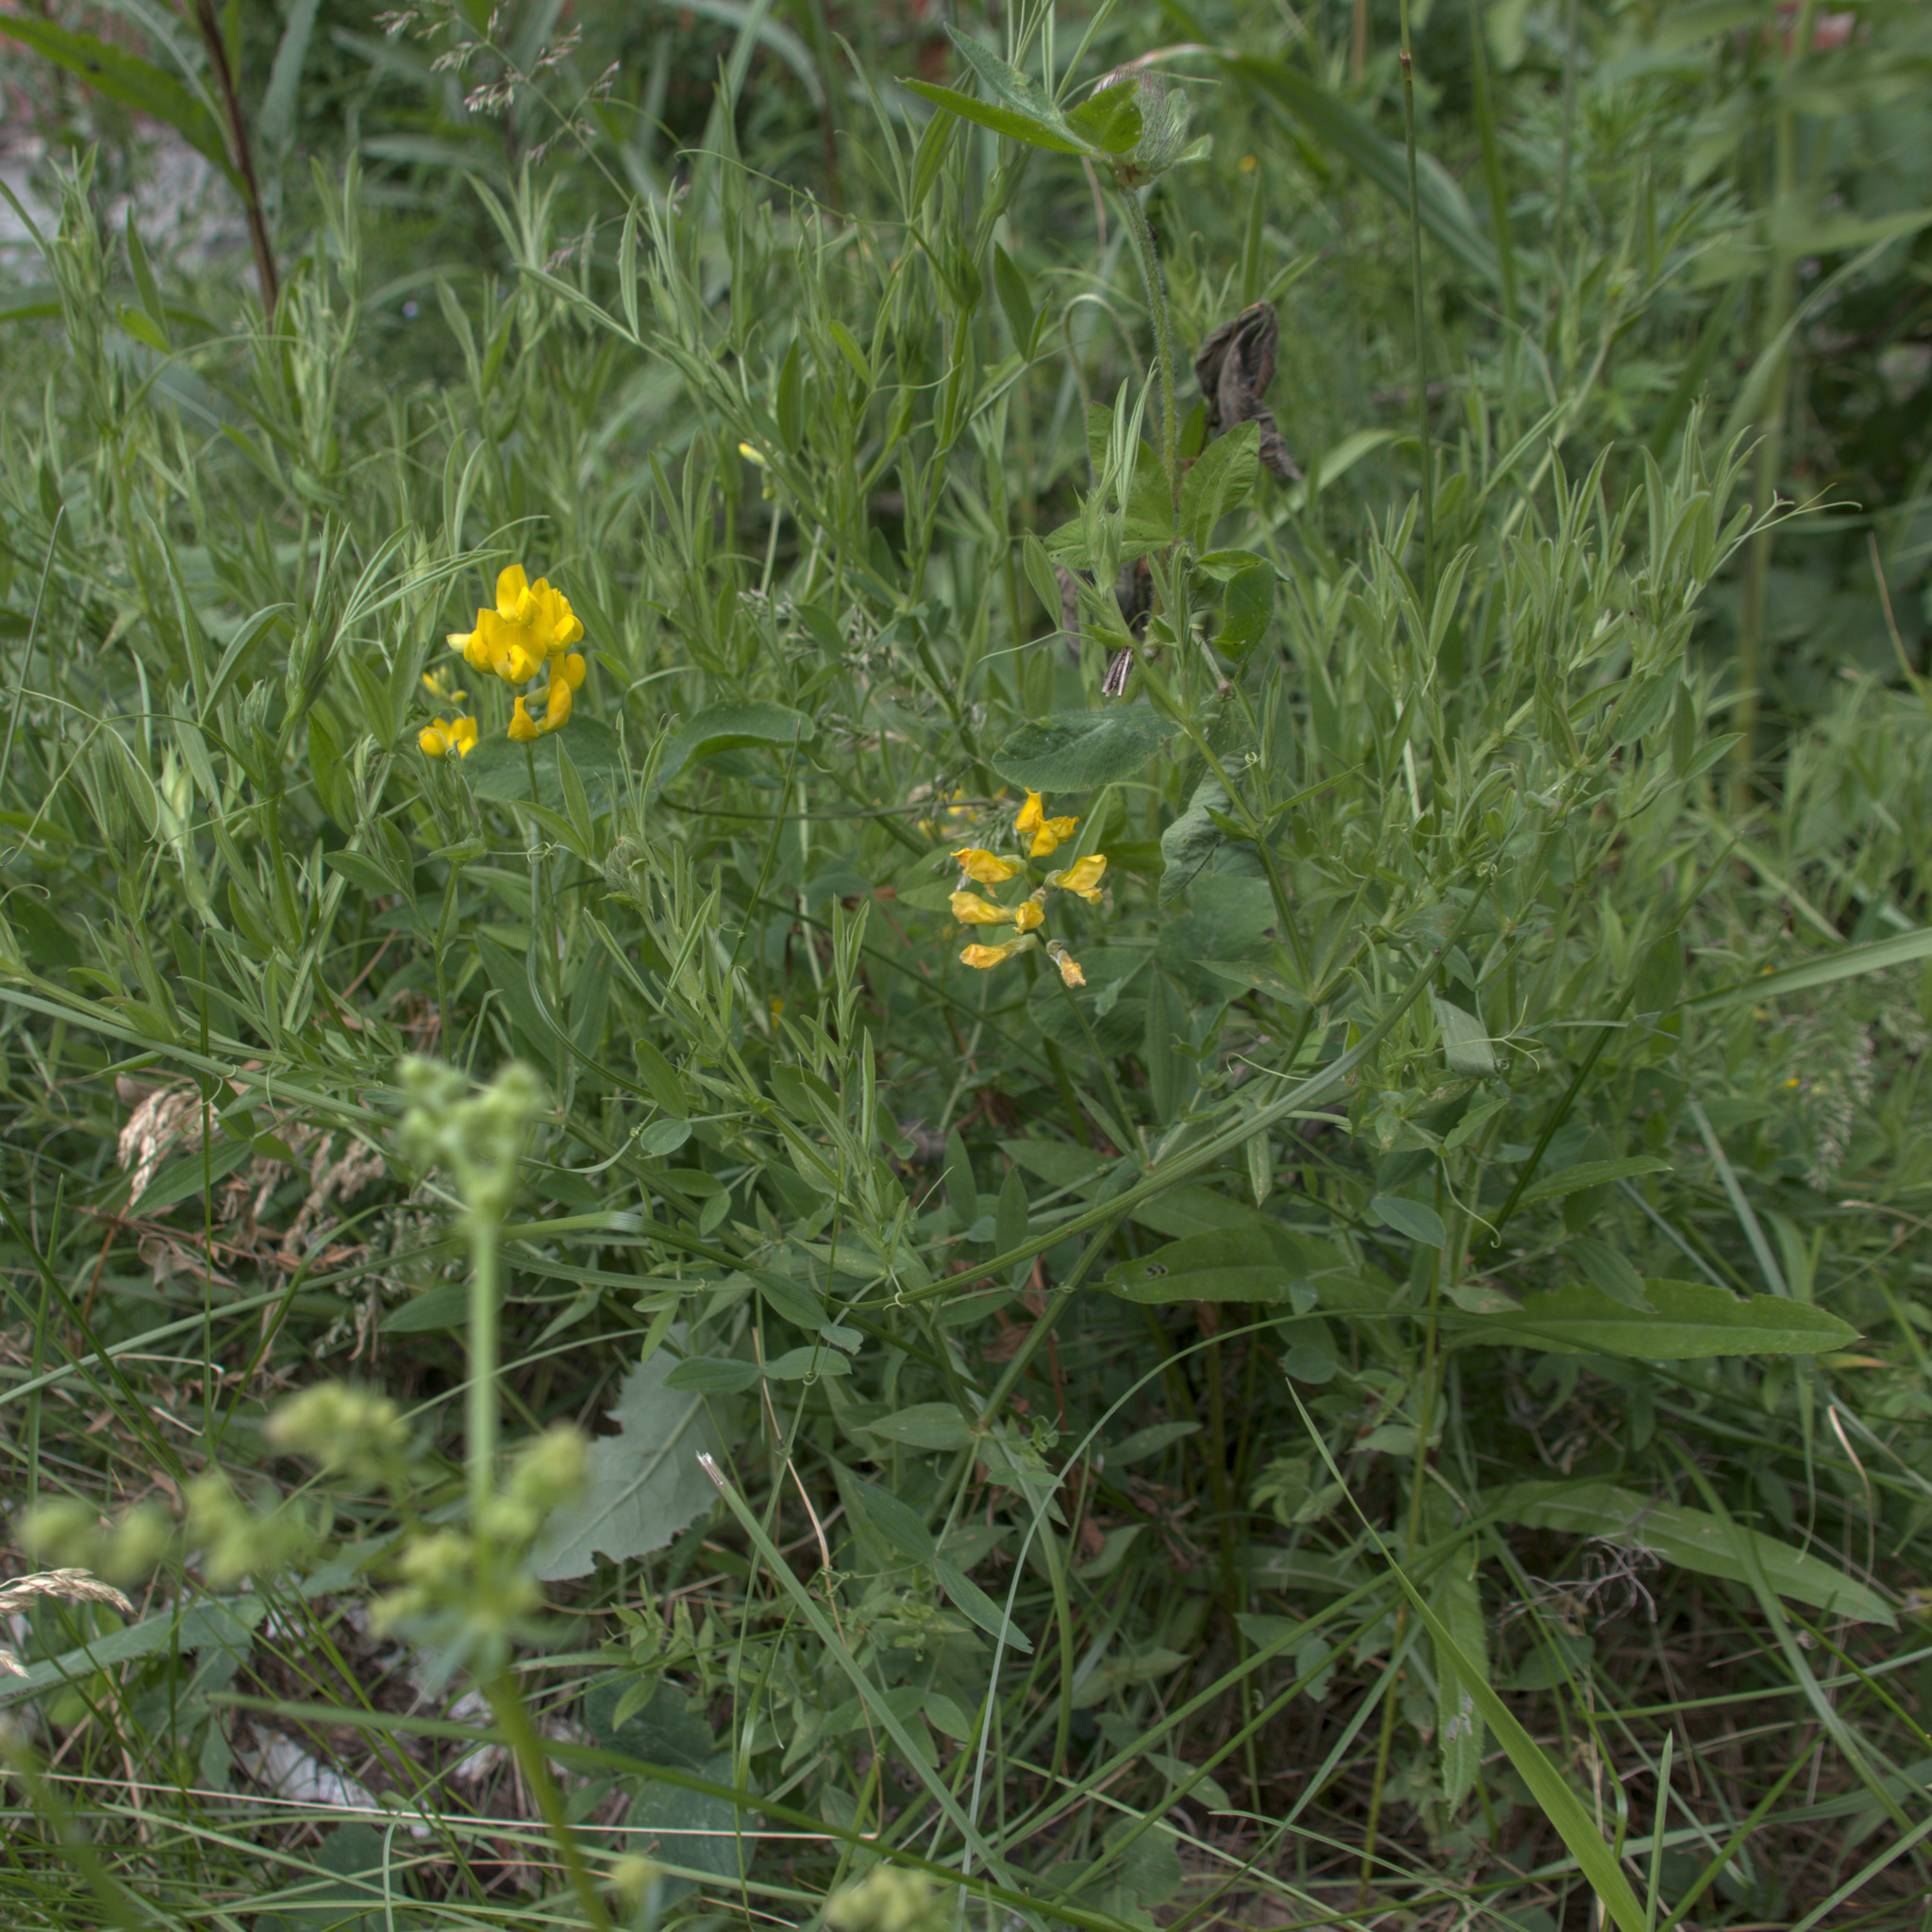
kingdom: Plantae
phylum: Tracheophyta
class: Magnoliopsida
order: Fabales
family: Fabaceae
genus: Lathyrus
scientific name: Lathyrus pratensis
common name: Meadow vetchling
